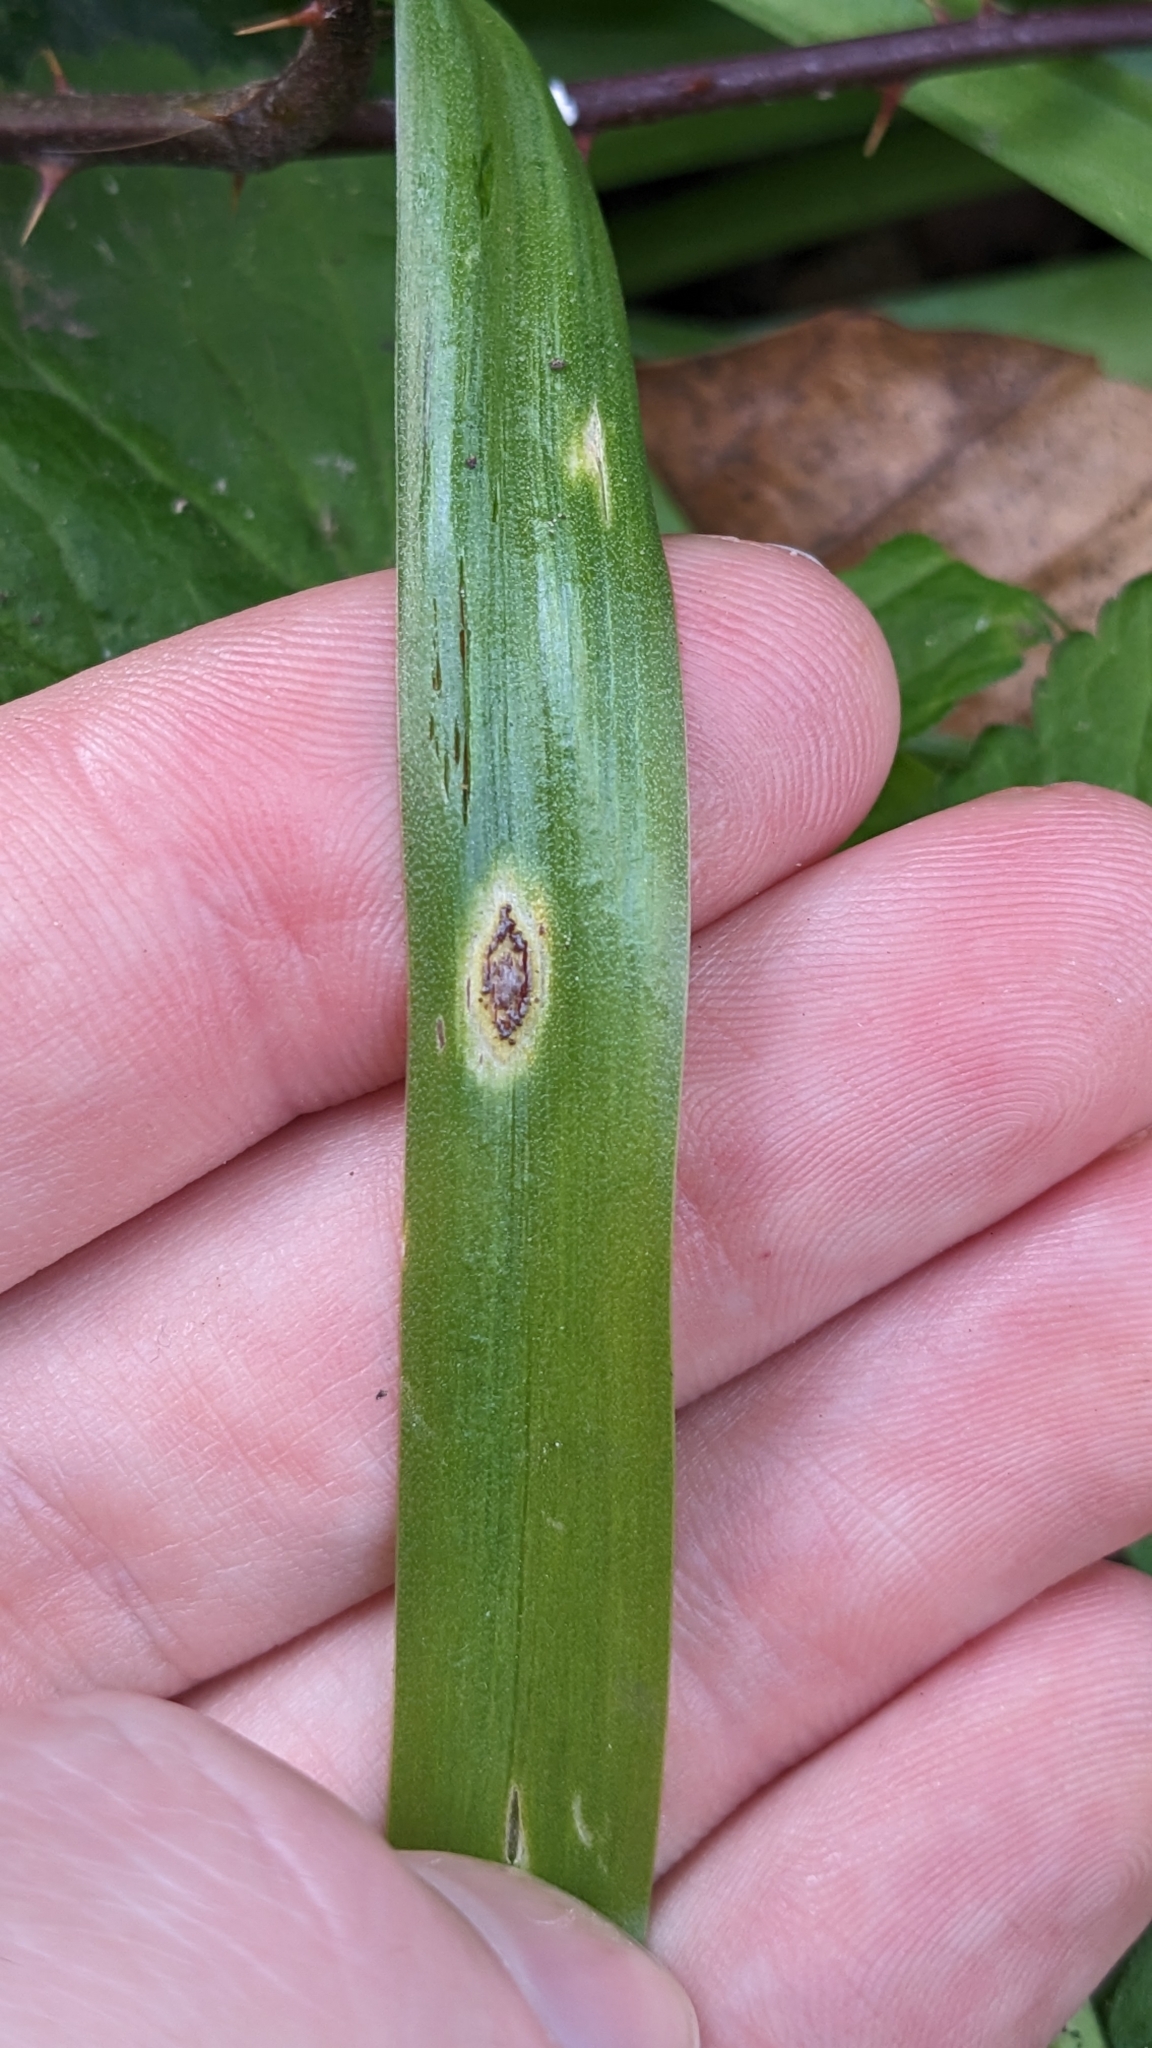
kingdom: Fungi
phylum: Basidiomycota
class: Pucciniomycetes
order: Pucciniales
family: Pucciniaceae
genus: Uromyces
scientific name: Uromyces hyacinthi
